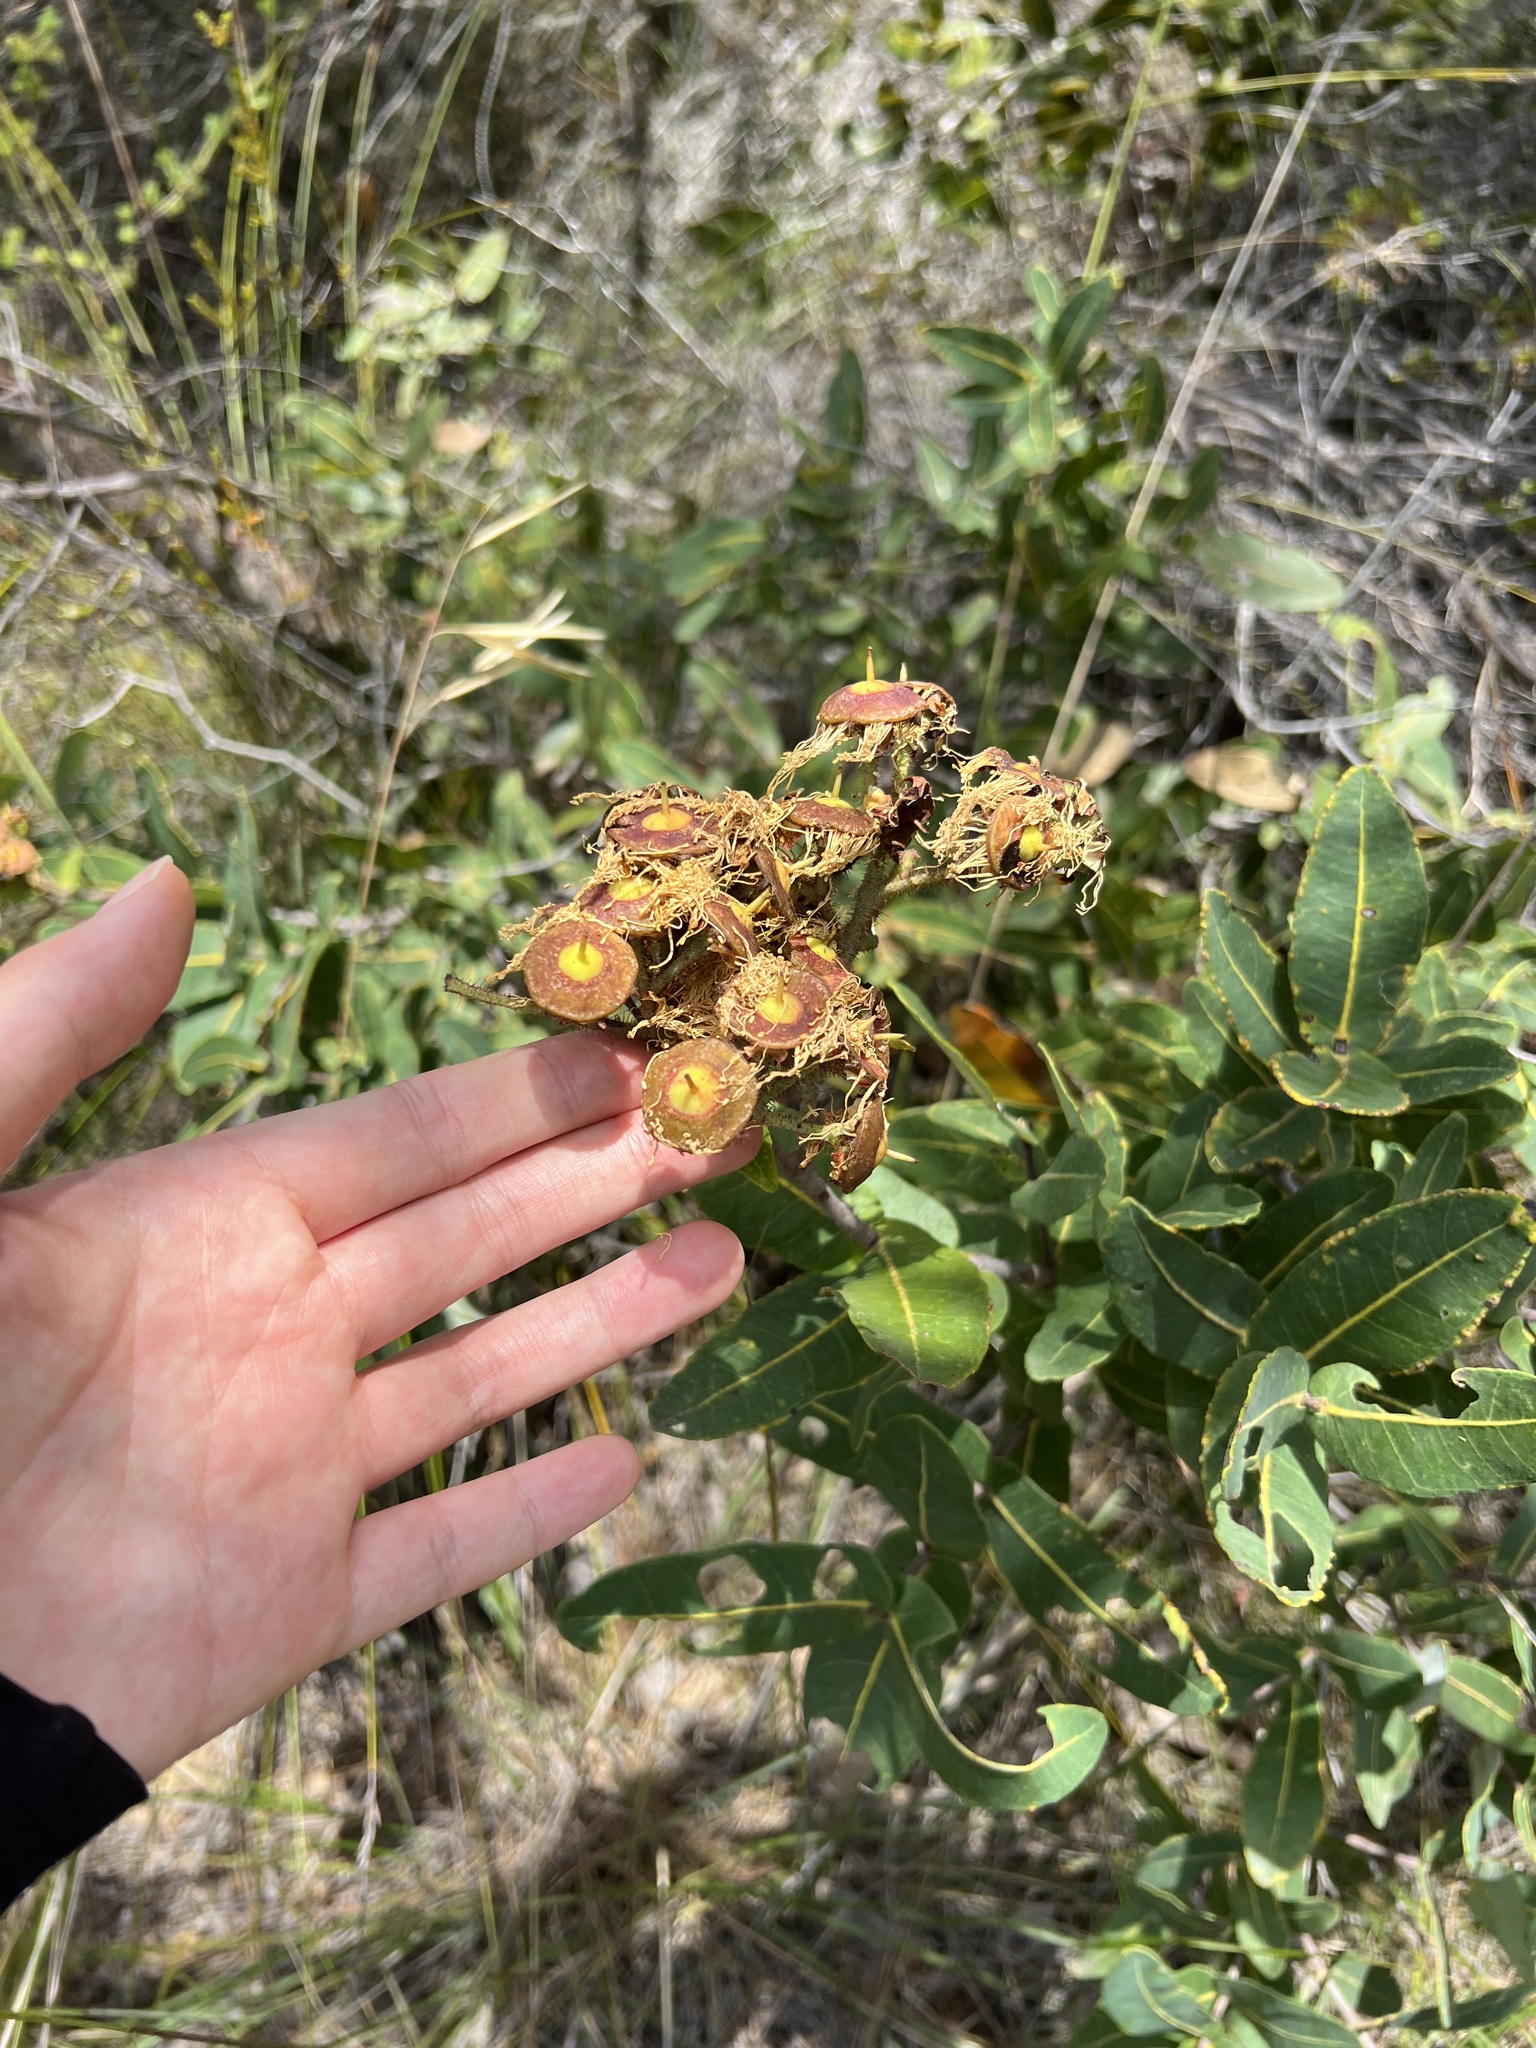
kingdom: Plantae
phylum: Tracheophyta
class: Magnoliopsida
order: Myrtales
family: Myrtaceae
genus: Angophora
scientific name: Angophora hispida
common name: Dwarf-apple
